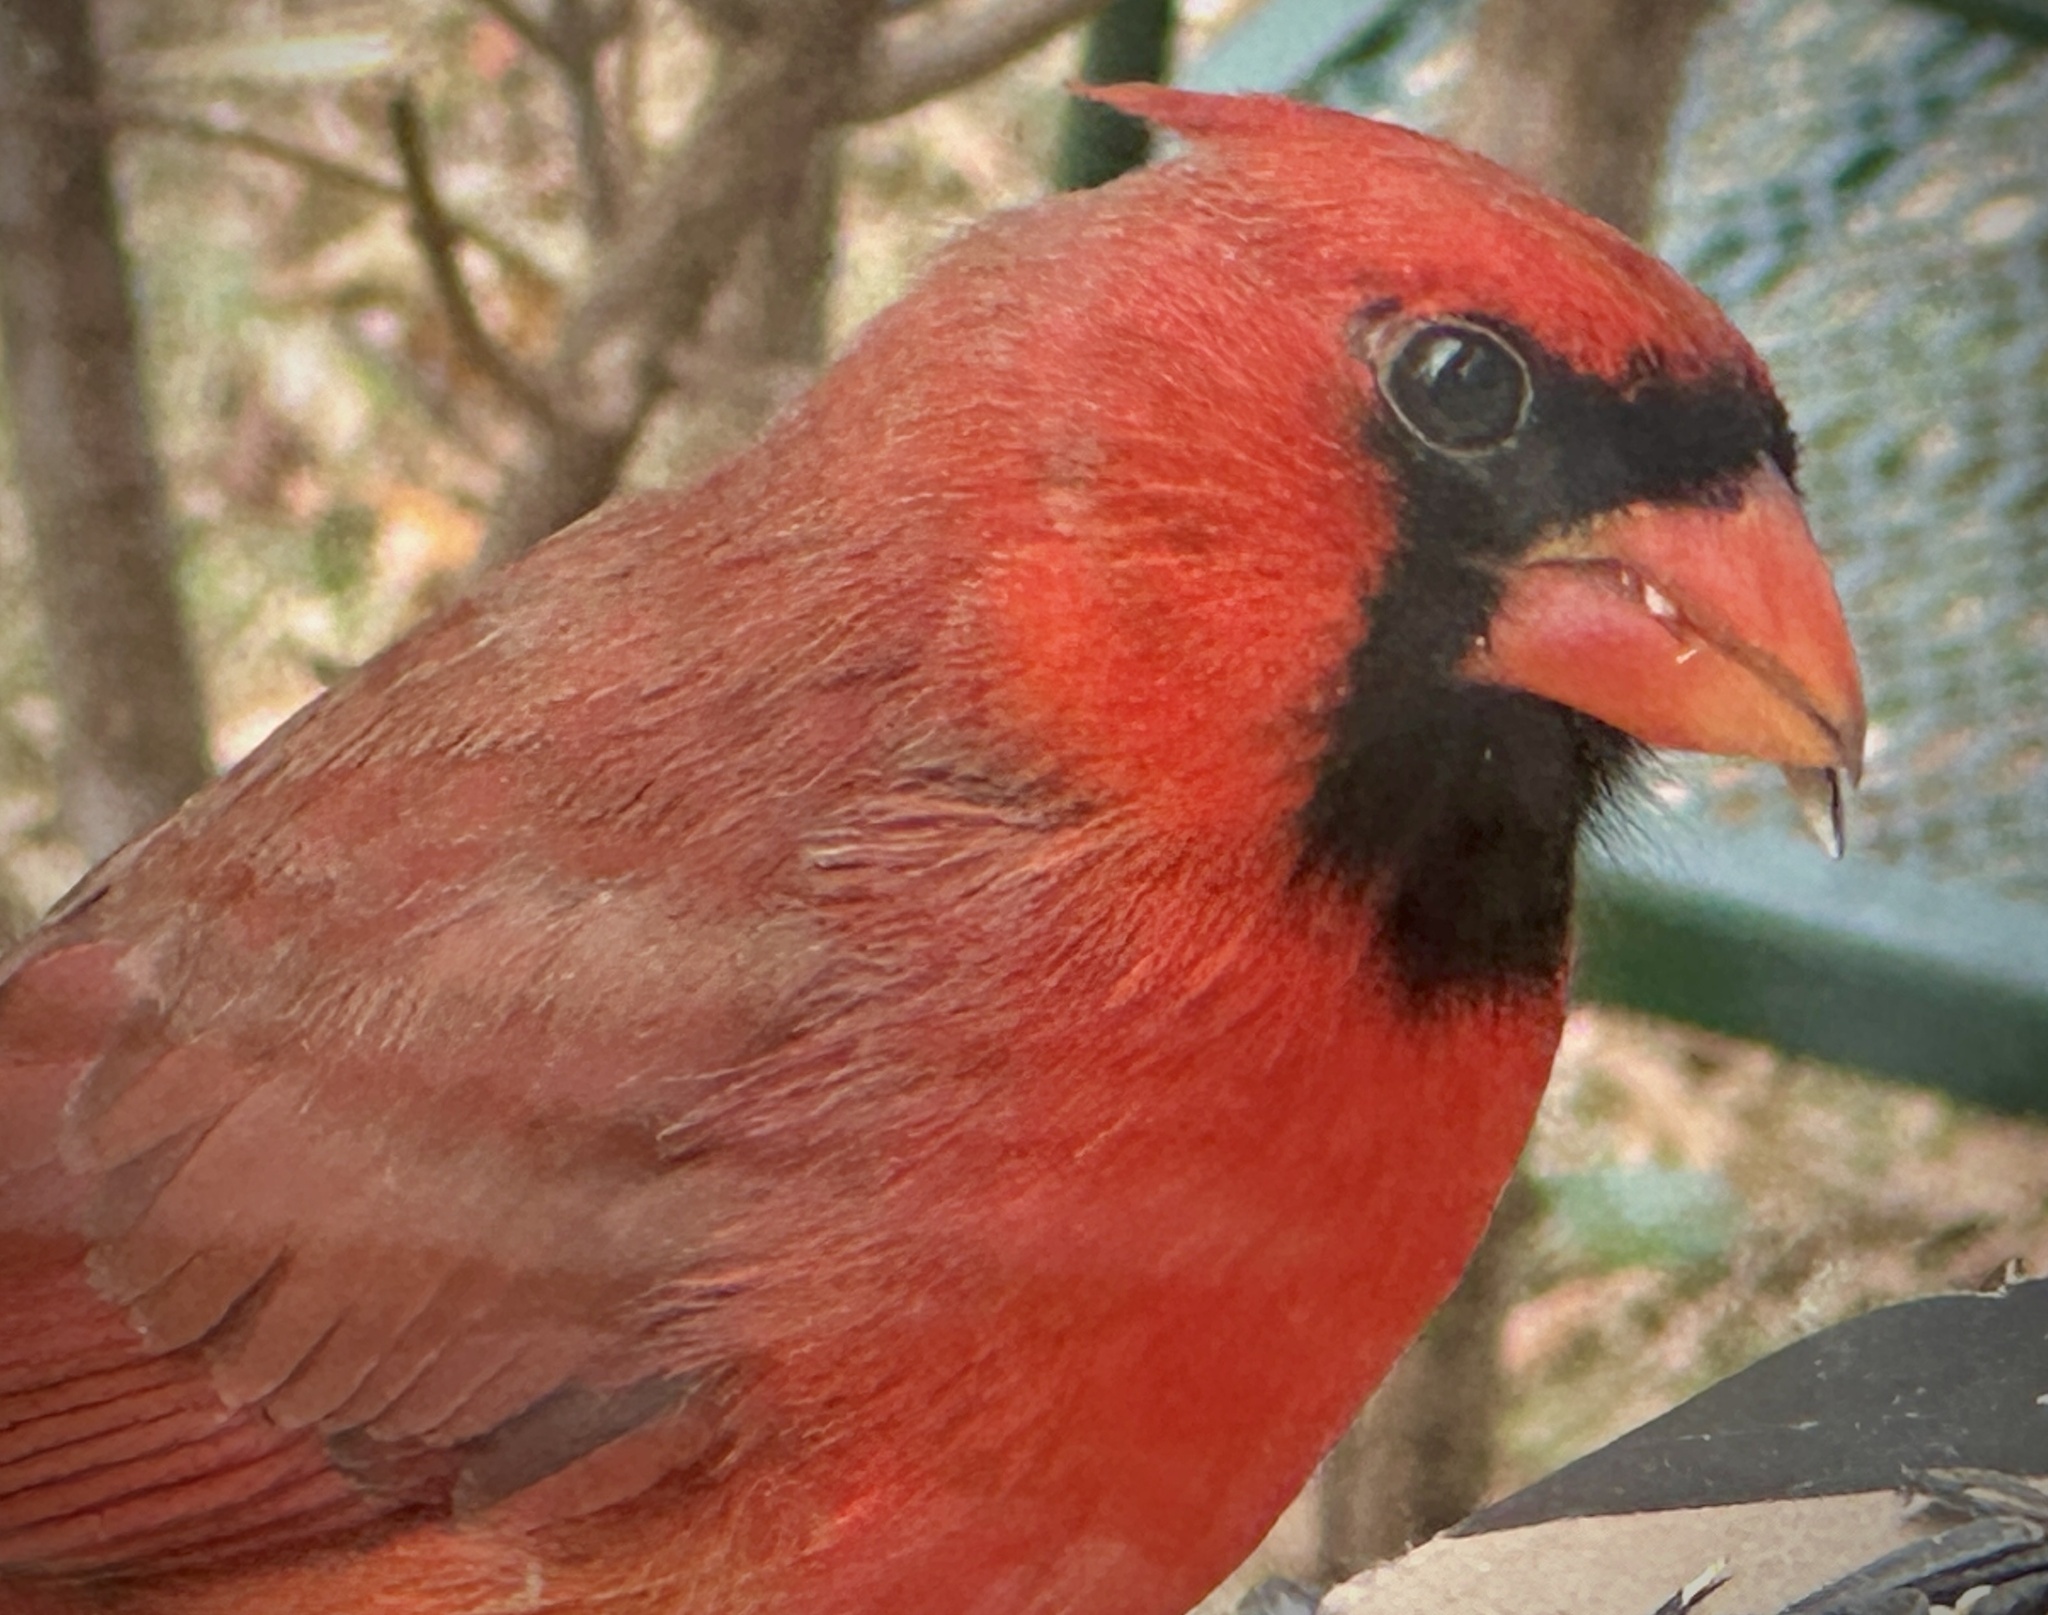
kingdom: Animalia
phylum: Chordata
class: Aves
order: Passeriformes
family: Cardinalidae
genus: Cardinalis
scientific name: Cardinalis cardinalis
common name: Northern cardinal
